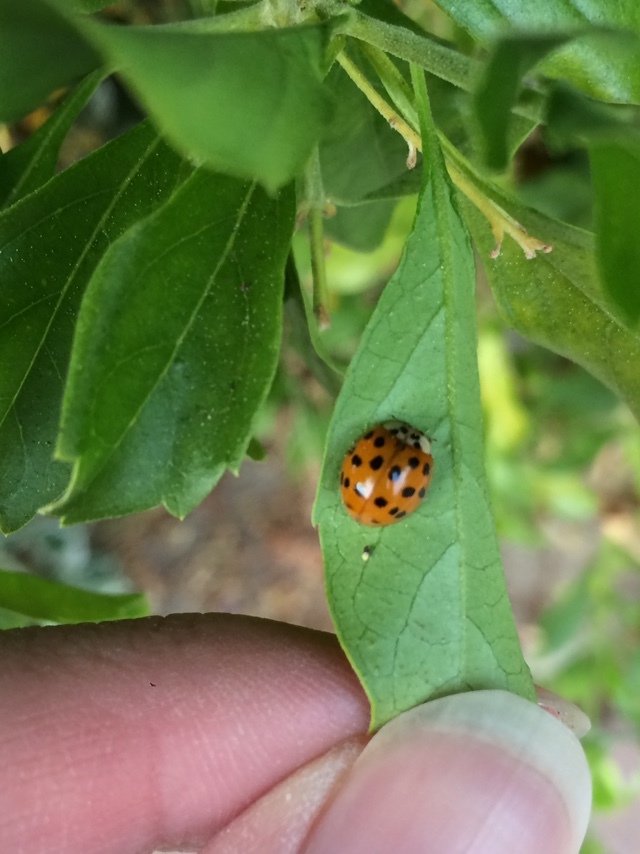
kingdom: Animalia
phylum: Arthropoda
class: Insecta
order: Coleoptera
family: Coccinellidae
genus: Harmonia
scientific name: Harmonia axyridis
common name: Harlequin ladybird
